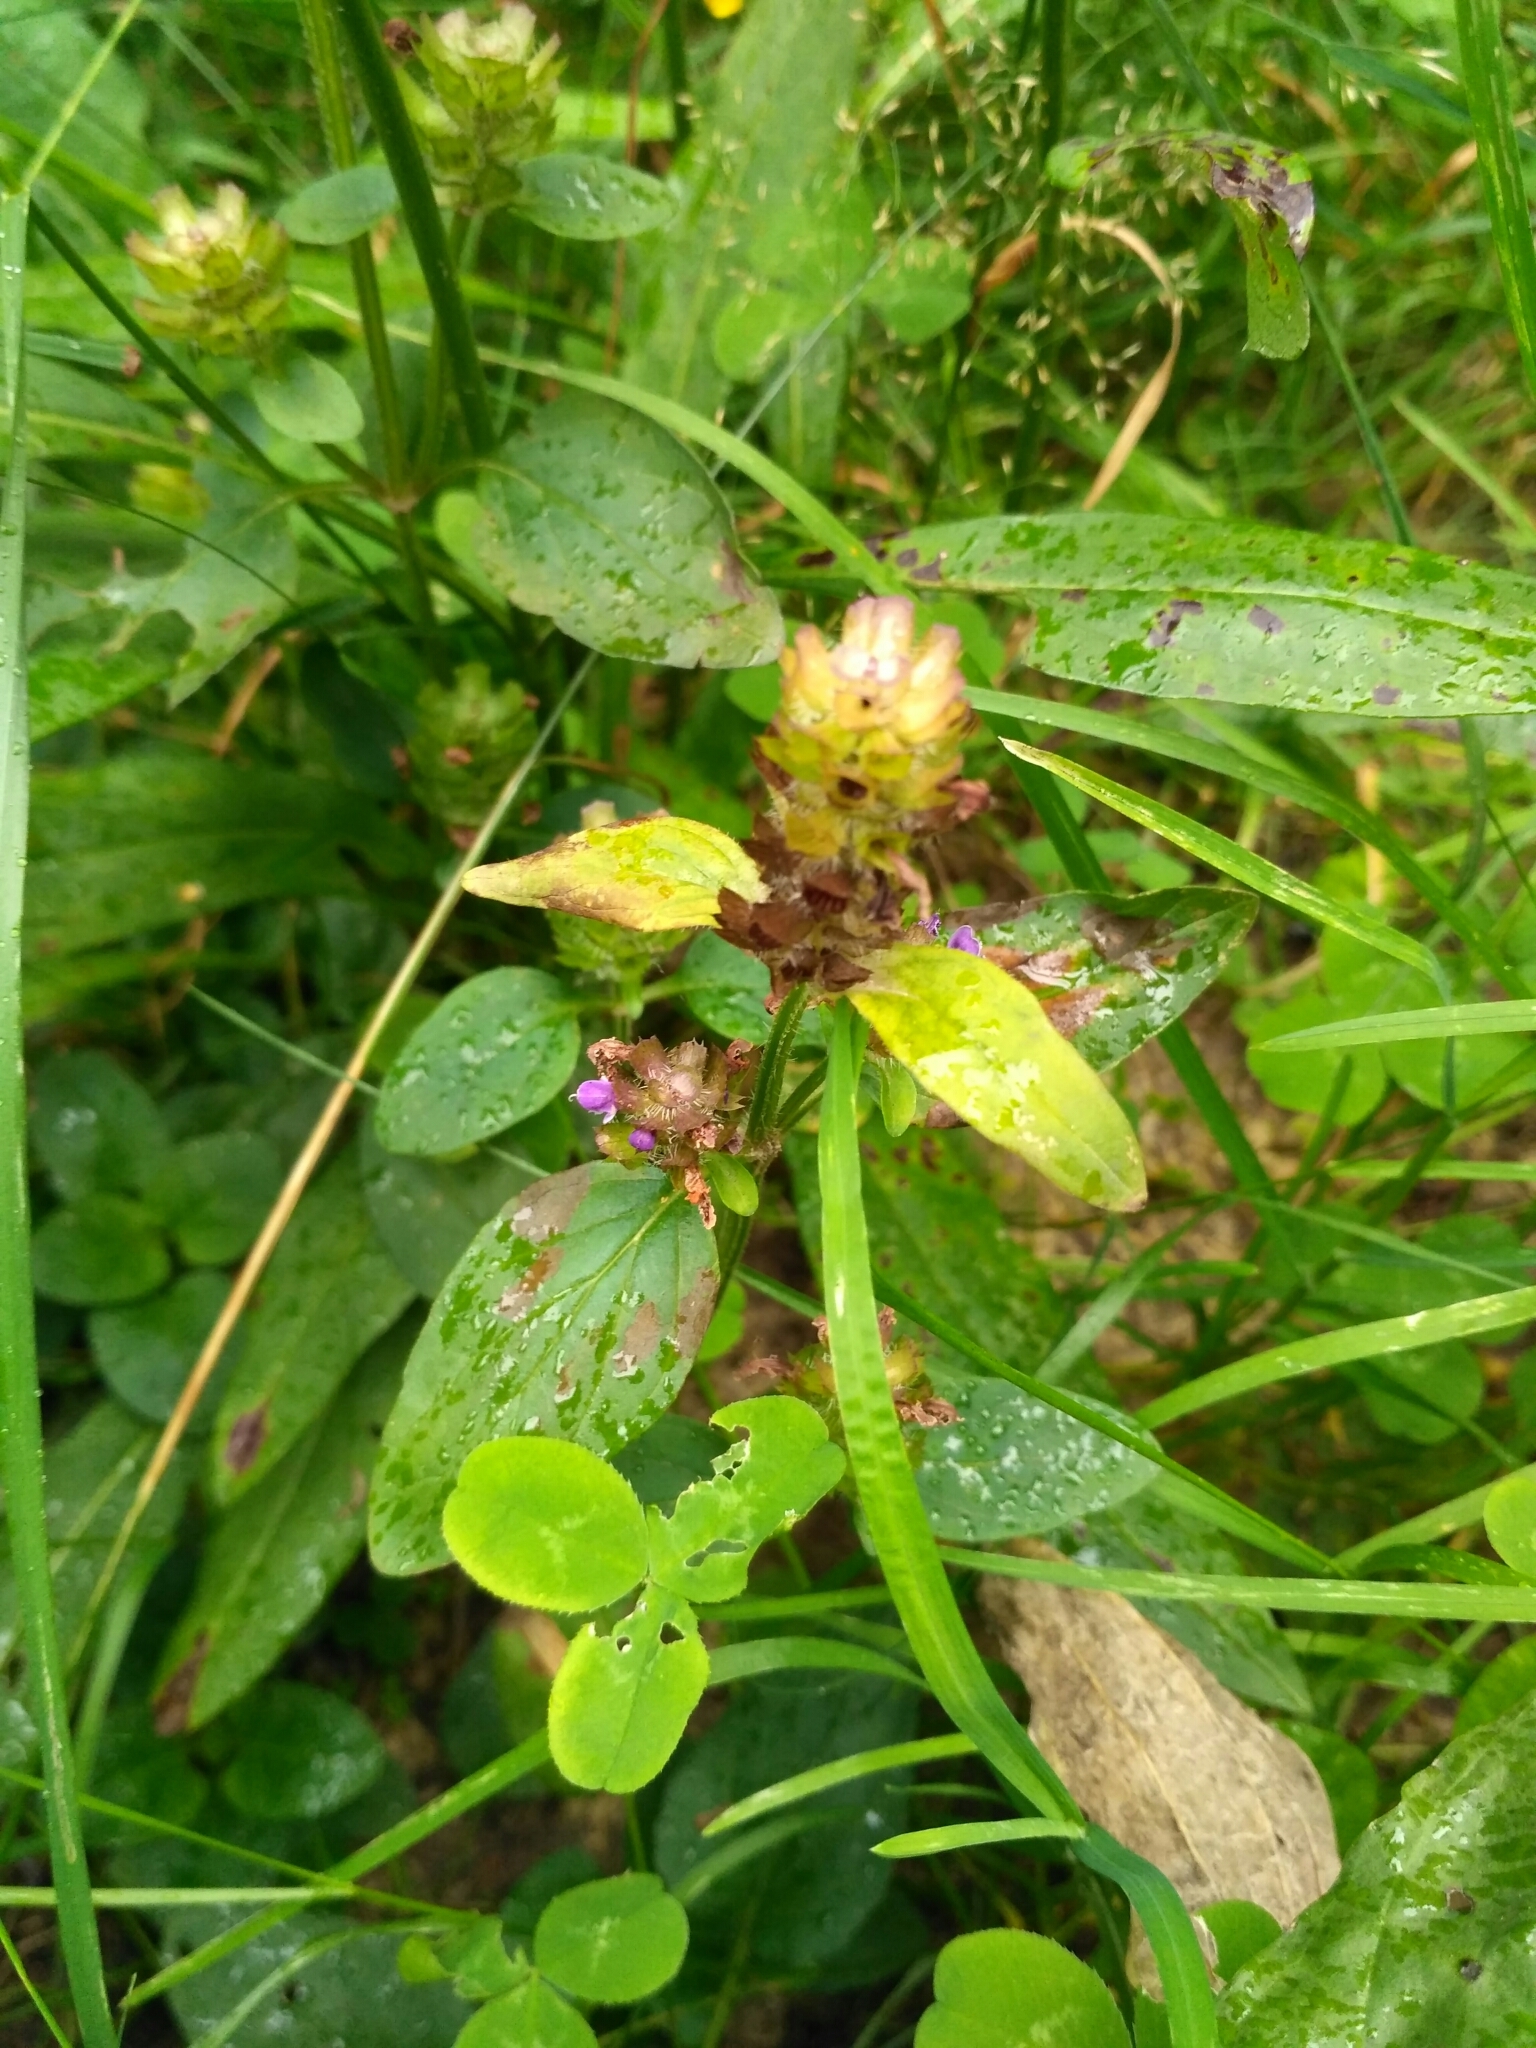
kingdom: Plantae
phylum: Tracheophyta
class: Magnoliopsida
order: Lamiales
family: Lamiaceae
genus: Prunella
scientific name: Prunella vulgaris
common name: Heal-all
